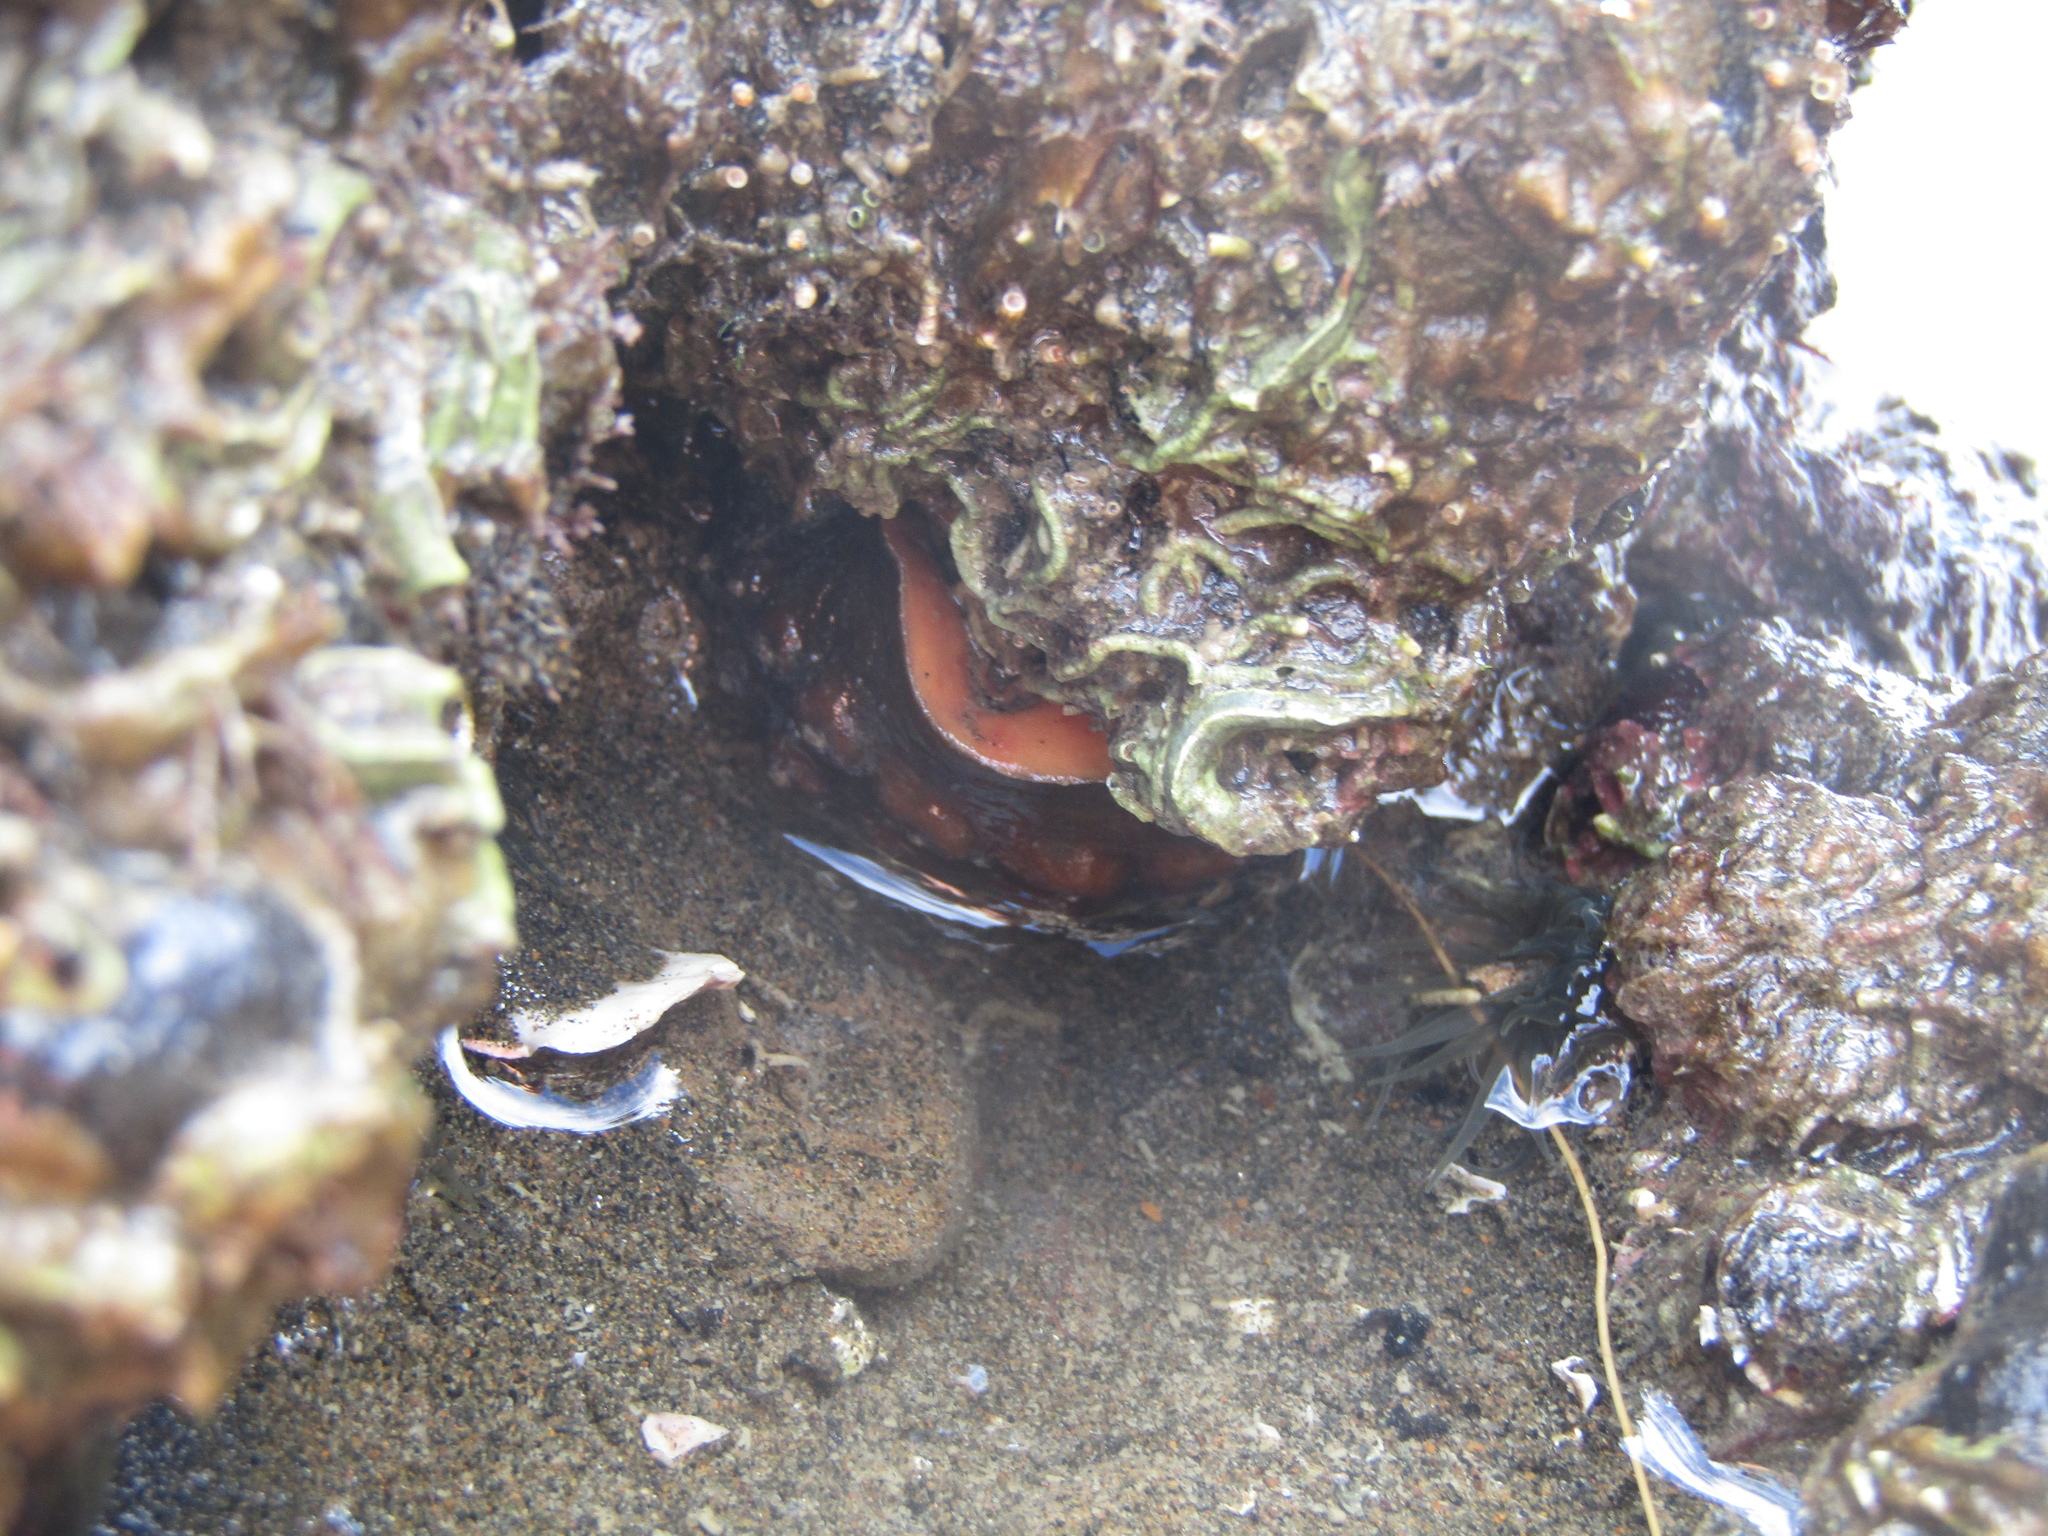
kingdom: Animalia
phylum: Mollusca
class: Polyplacophora
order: Chitonida
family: Acanthochitonidae
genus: Cryptoconchus
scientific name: Cryptoconchus porosus
